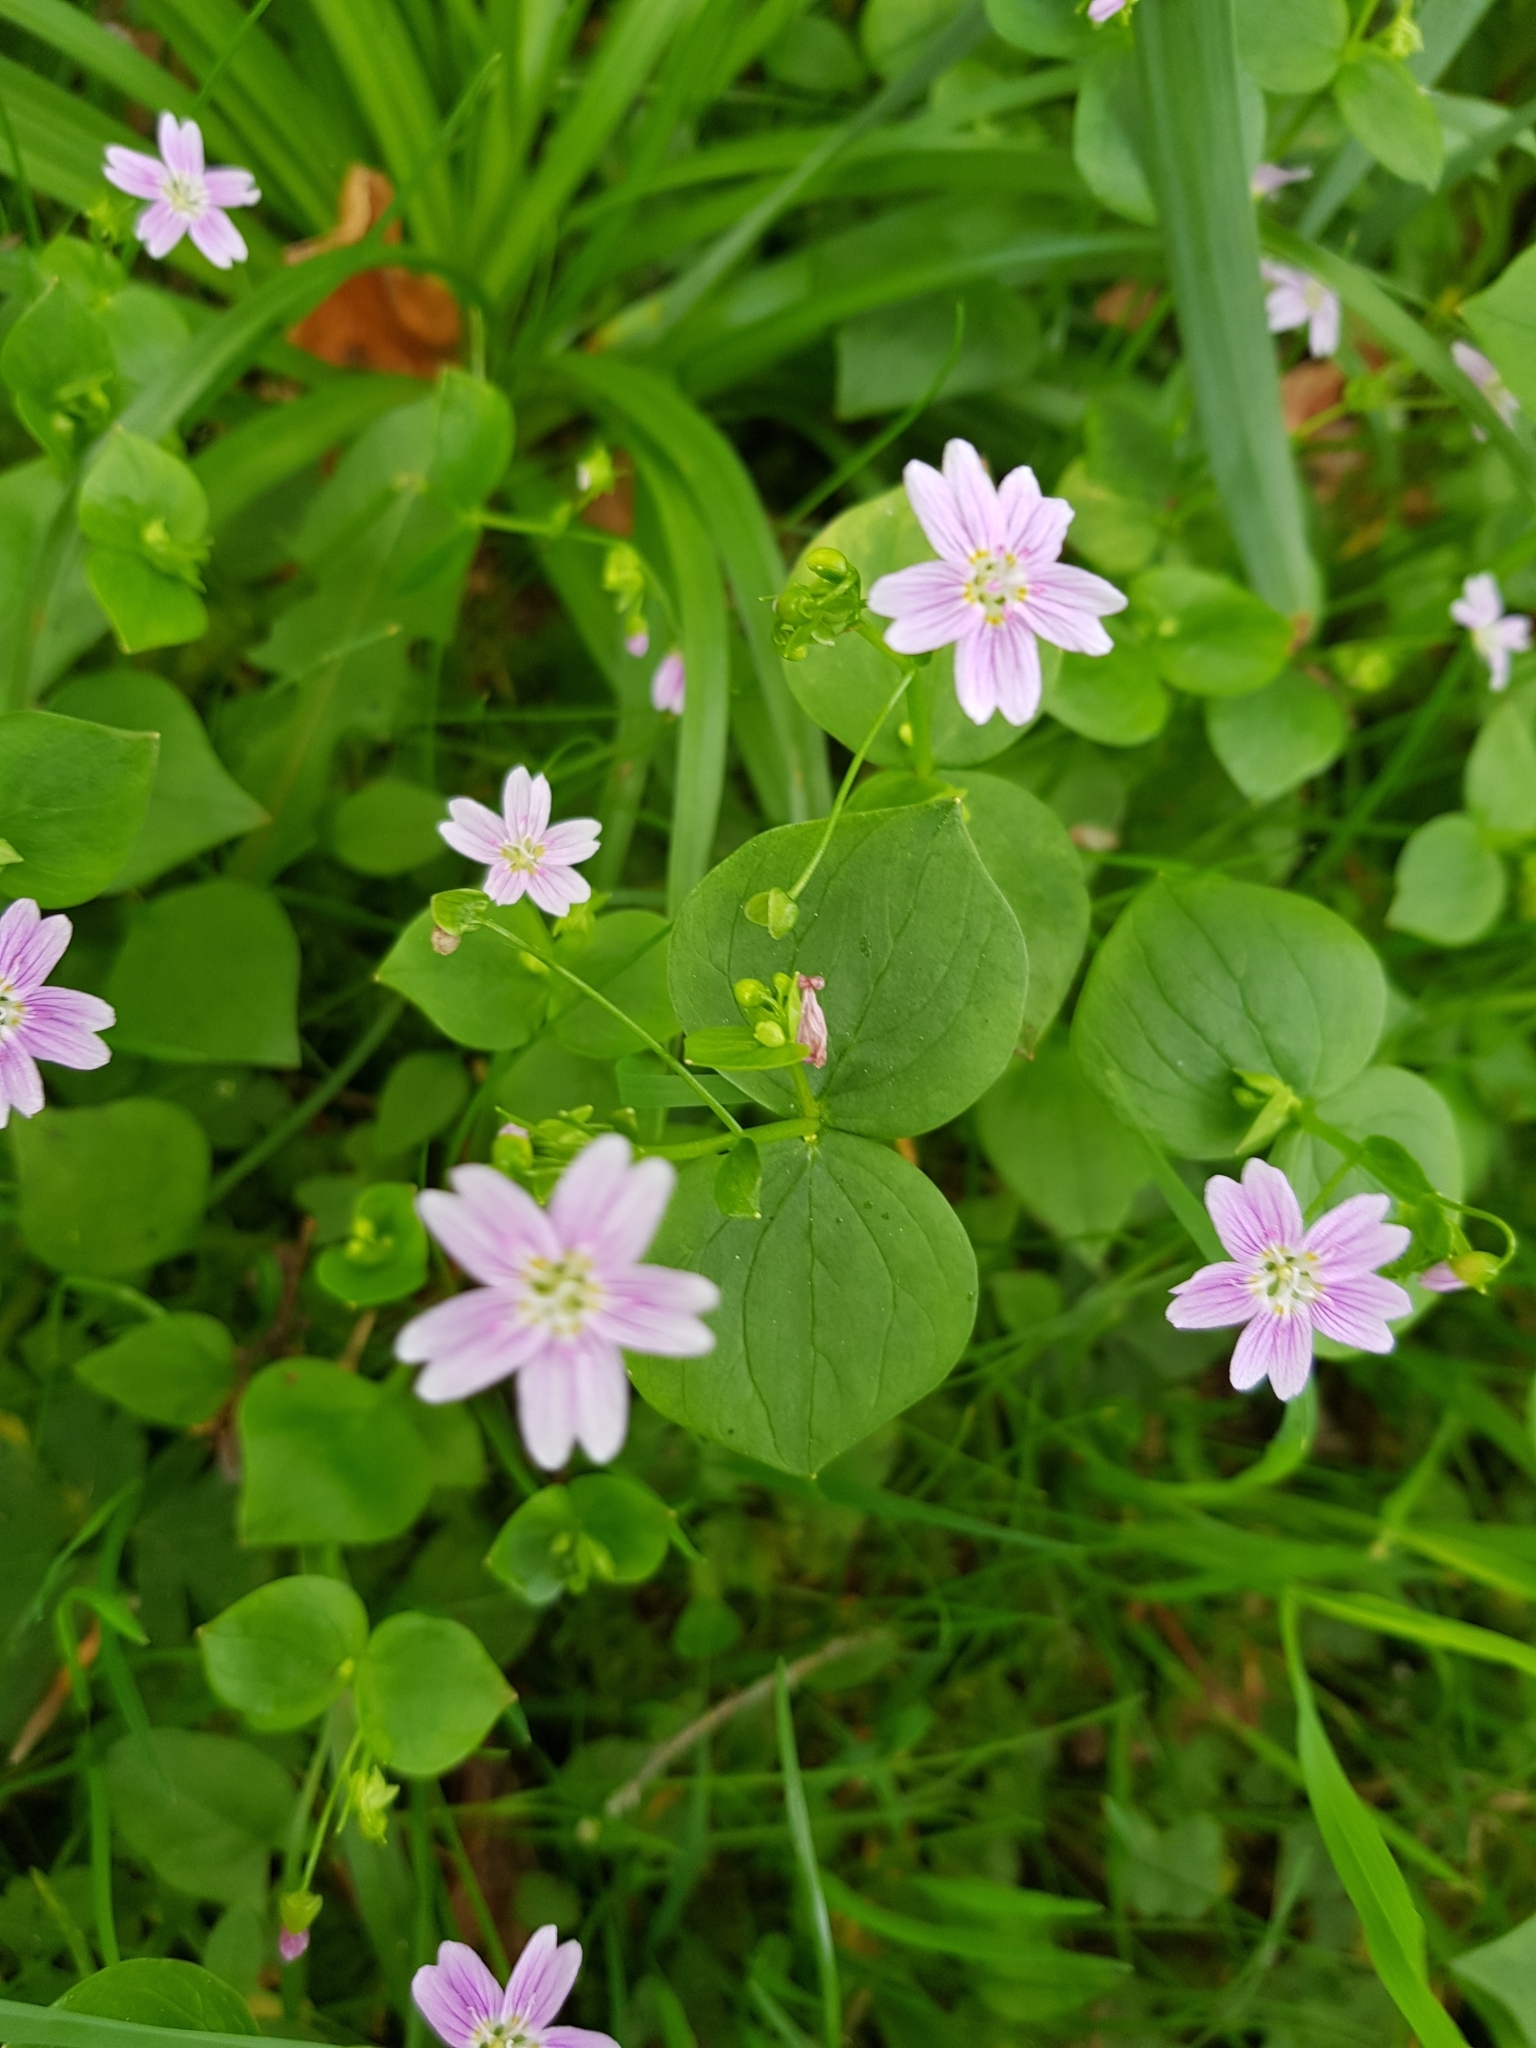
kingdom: Plantae
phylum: Tracheophyta
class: Magnoliopsida
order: Caryophyllales
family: Montiaceae
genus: Claytonia
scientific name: Claytonia sibirica
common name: Pink purslane
